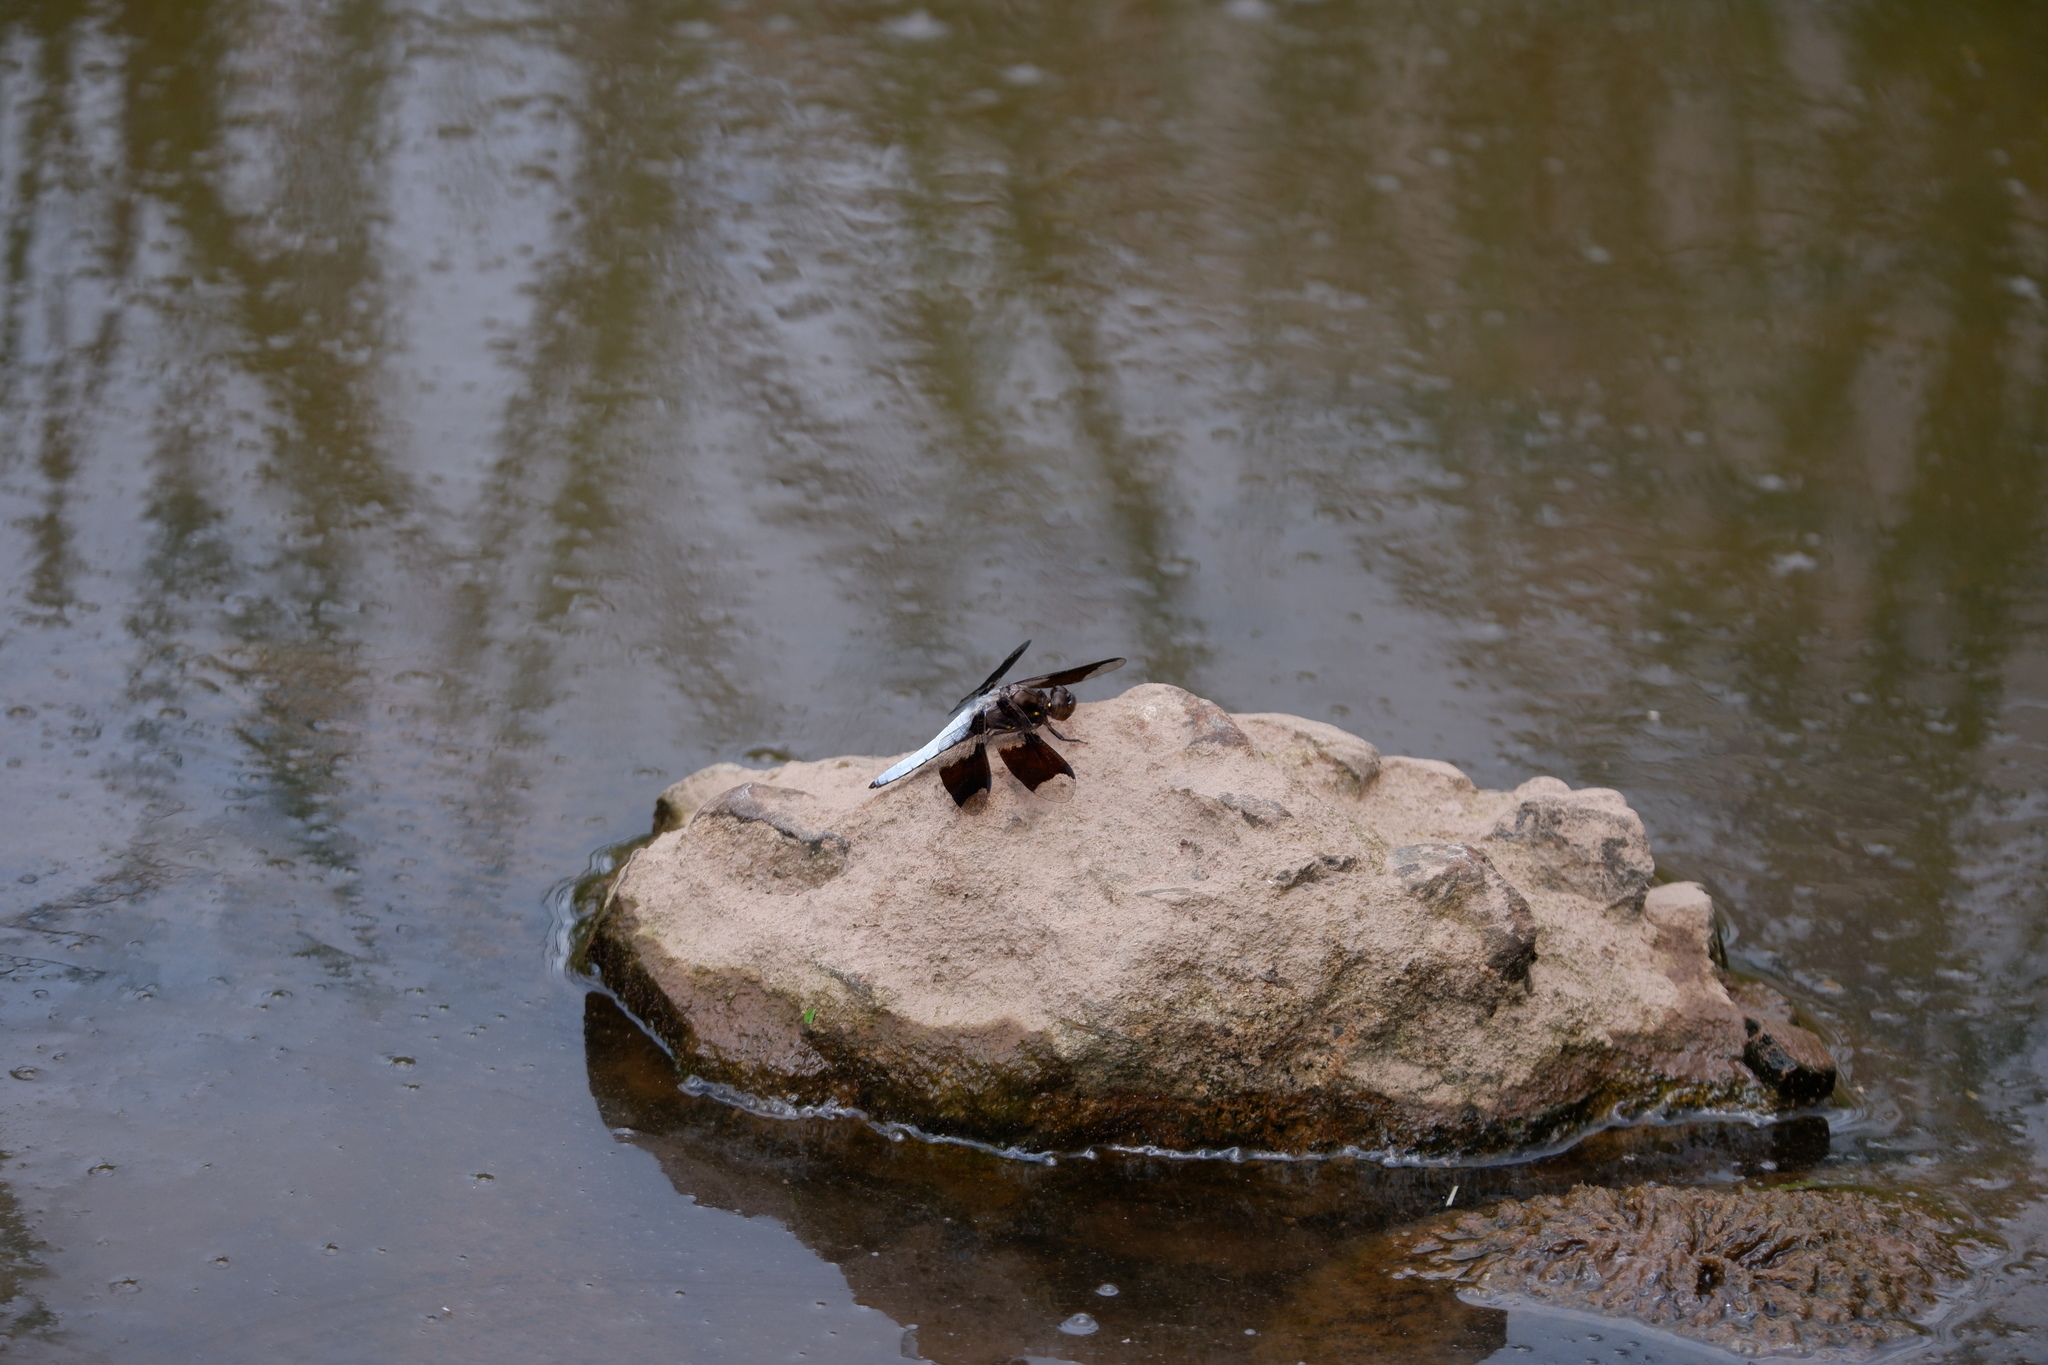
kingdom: Animalia
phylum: Arthropoda
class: Insecta
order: Odonata
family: Libellulidae
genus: Plathemis
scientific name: Plathemis lydia
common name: Common whitetail
